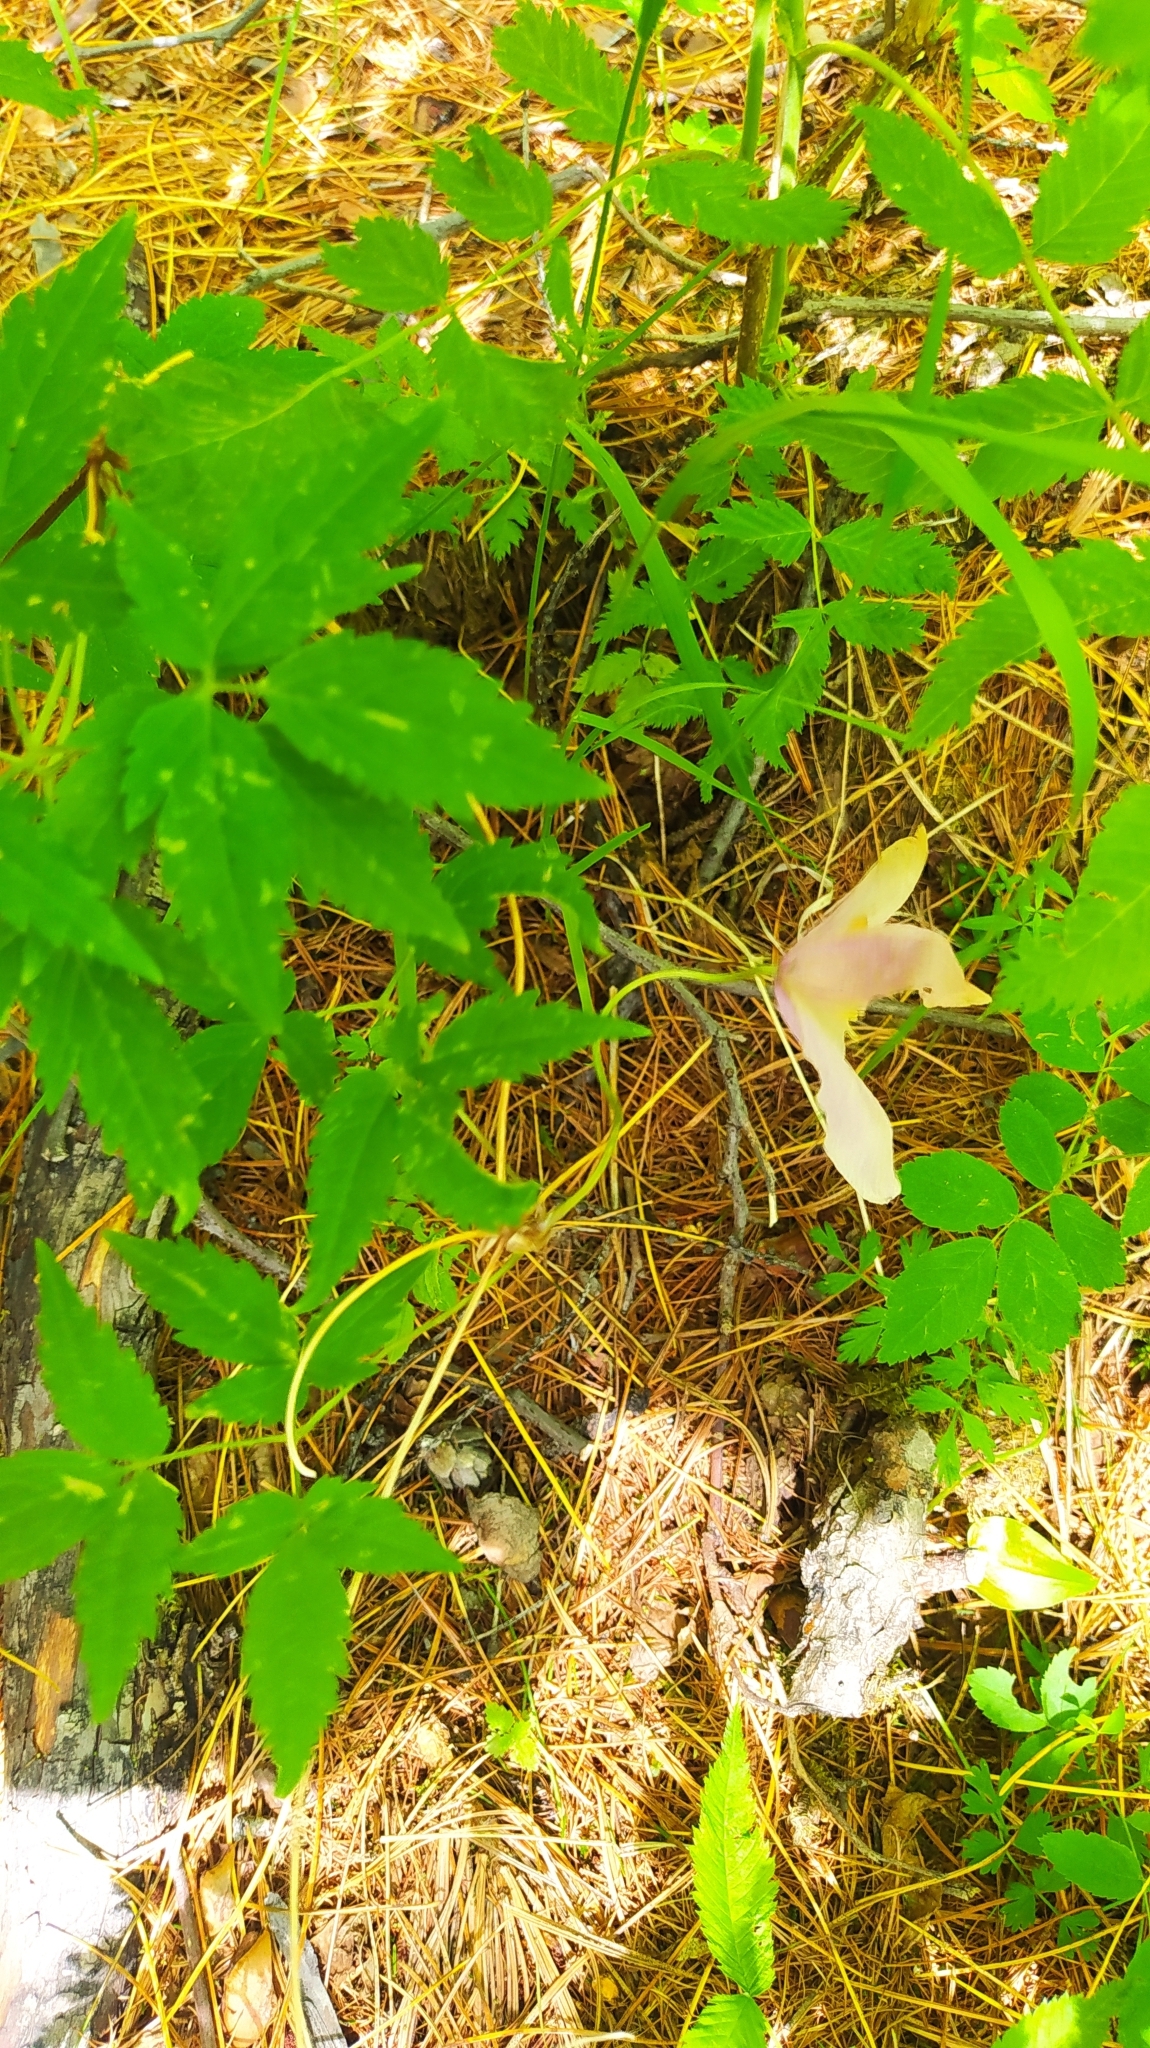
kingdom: Plantae
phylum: Tracheophyta
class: Magnoliopsida
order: Ranunculales
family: Ranunculaceae
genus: Clematis
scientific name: Clematis ochotensis
